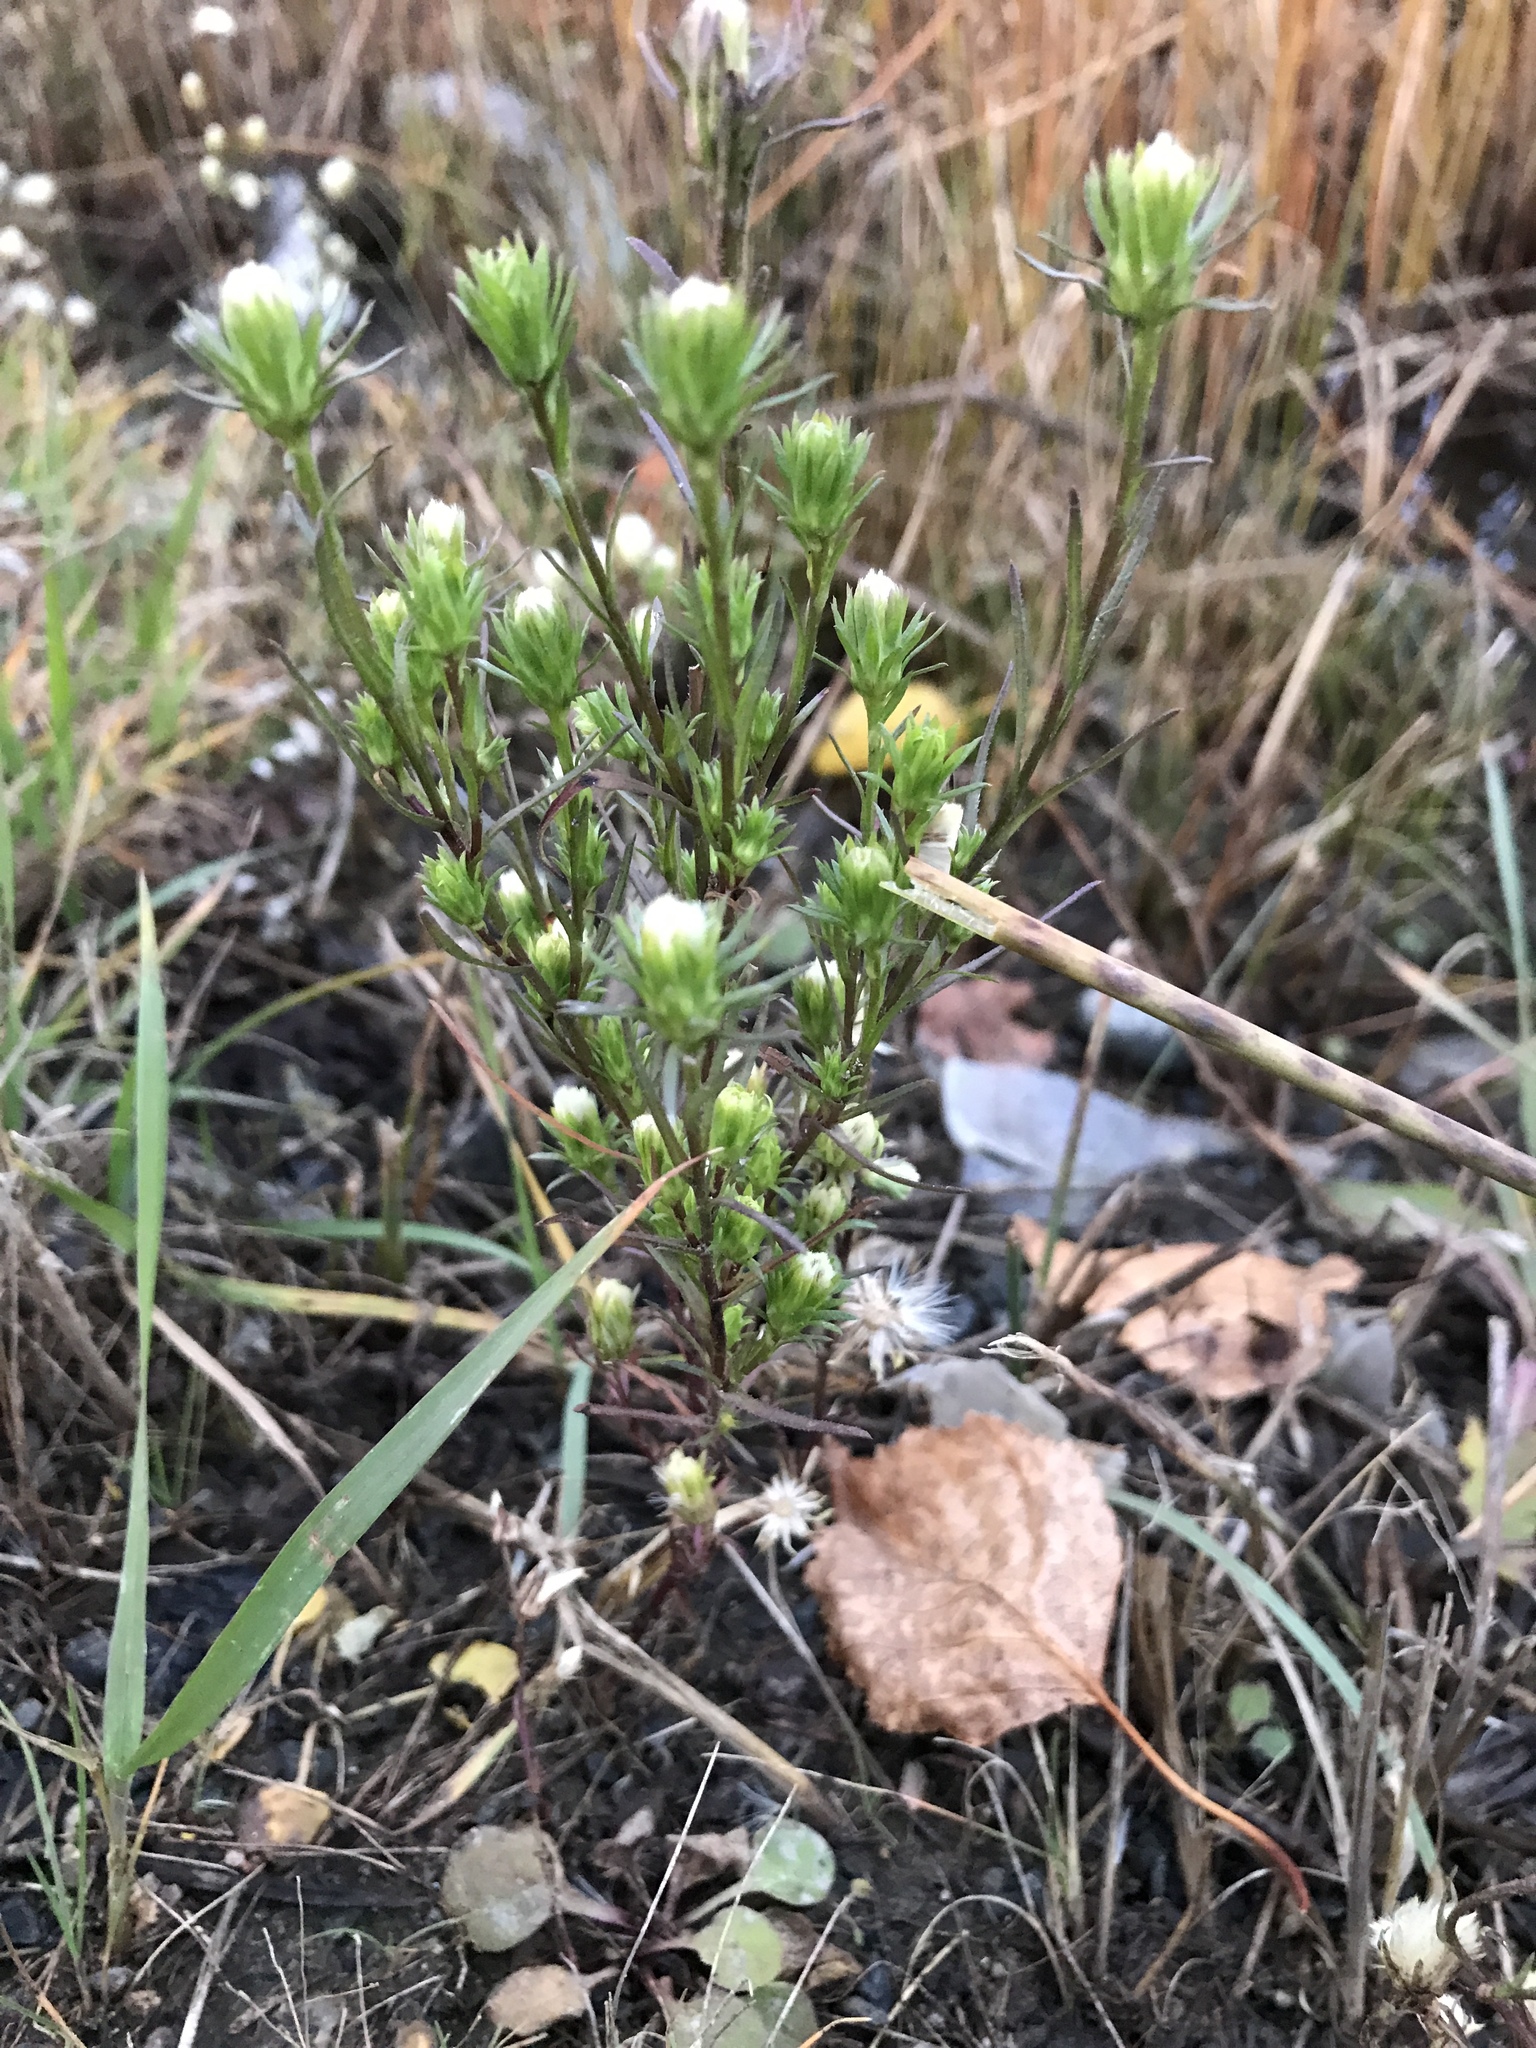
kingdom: Plantae
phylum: Tracheophyta
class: Magnoliopsida
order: Asterales
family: Asteraceae
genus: Symphyotrichum
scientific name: Symphyotrichum ciliatum
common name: Rayless annual aster
